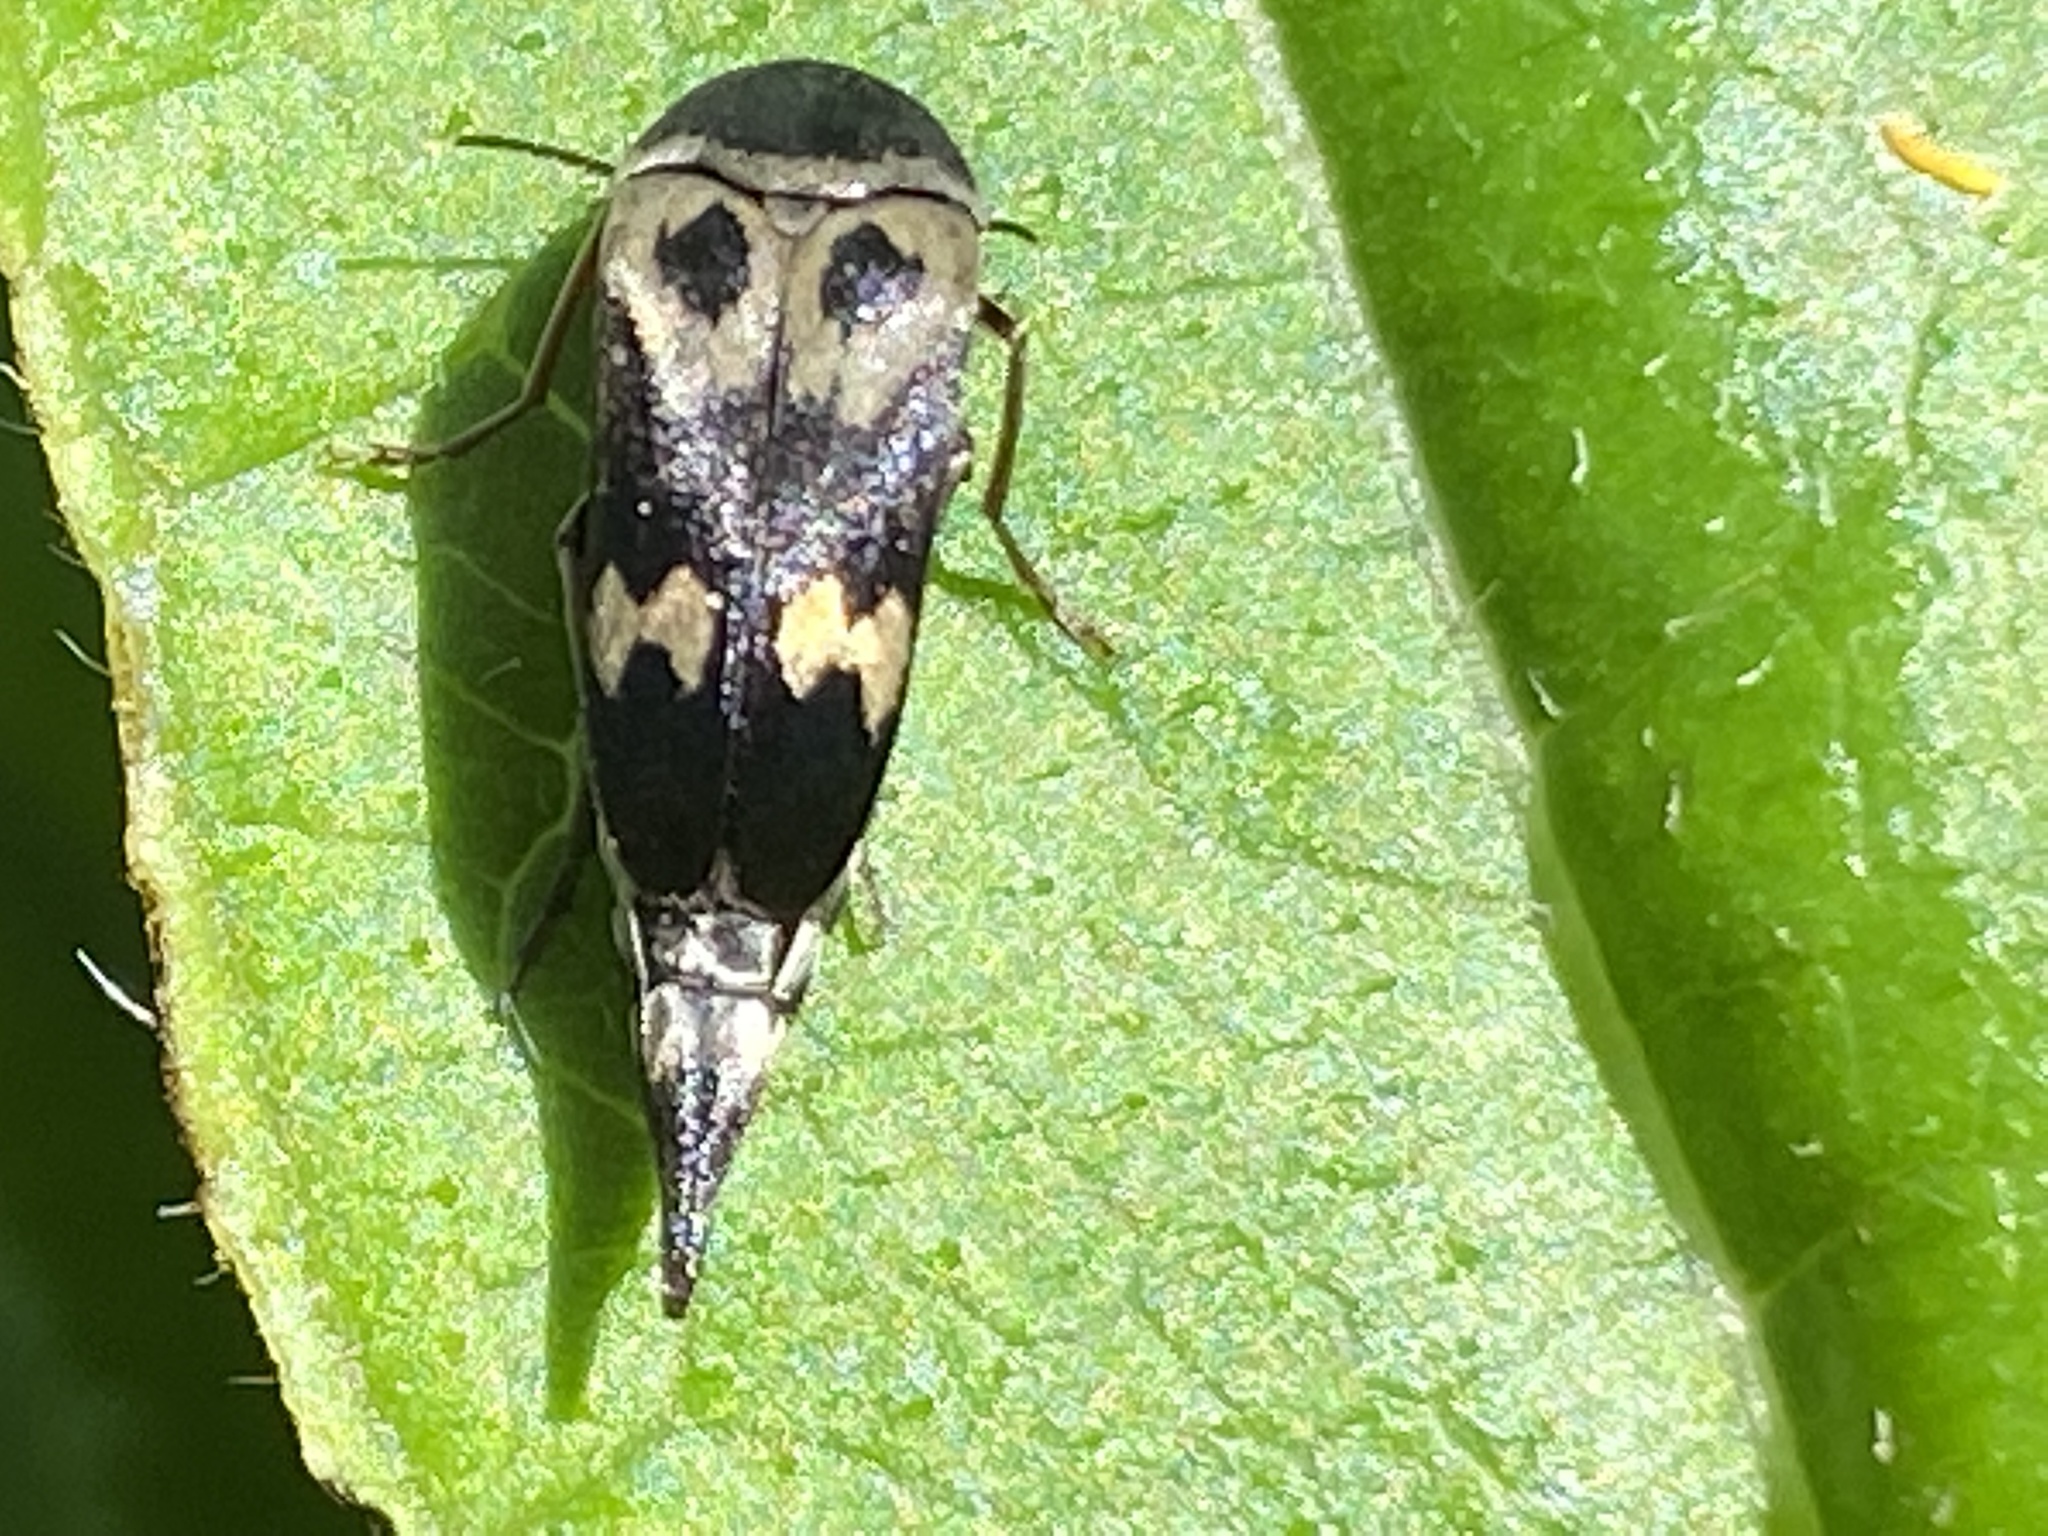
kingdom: Animalia
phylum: Arthropoda
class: Insecta
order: Coleoptera
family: Mordellidae
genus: Glipa
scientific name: Glipa oculata
